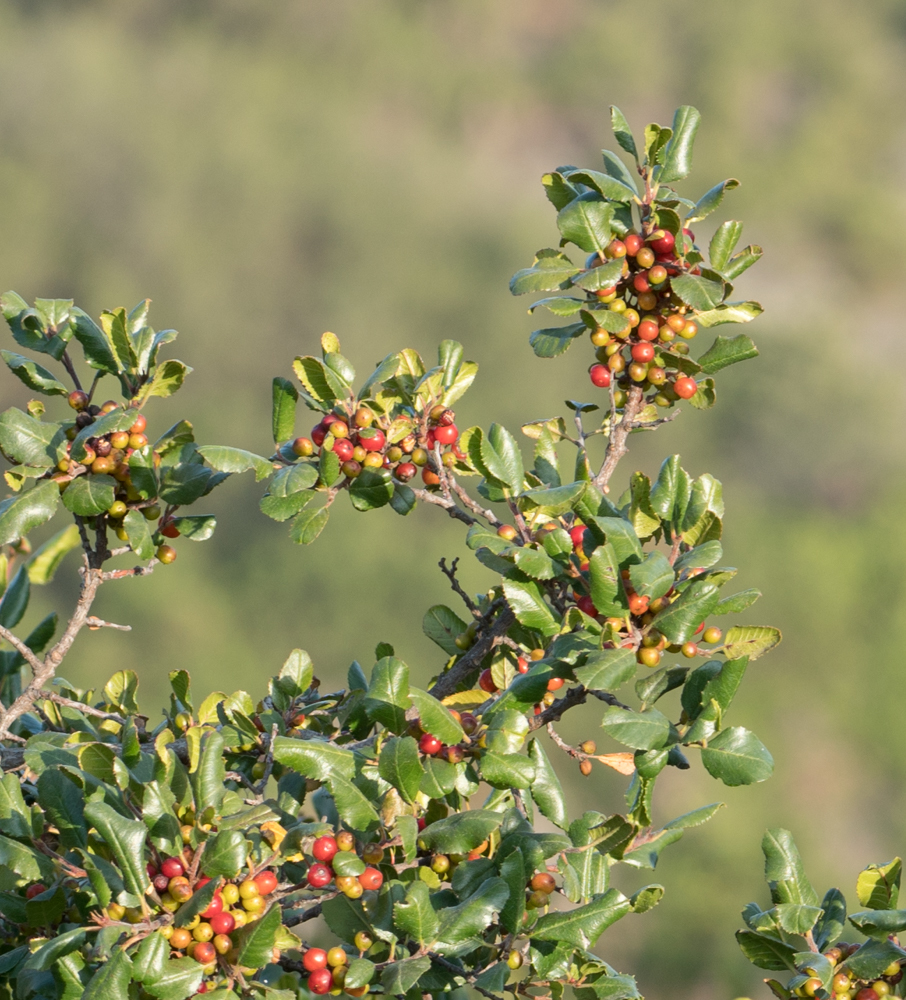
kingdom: Plantae
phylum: Tracheophyta
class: Magnoliopsida
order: Rosales
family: Rhamnaceae
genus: Endotropis
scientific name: Endotropis crocea
